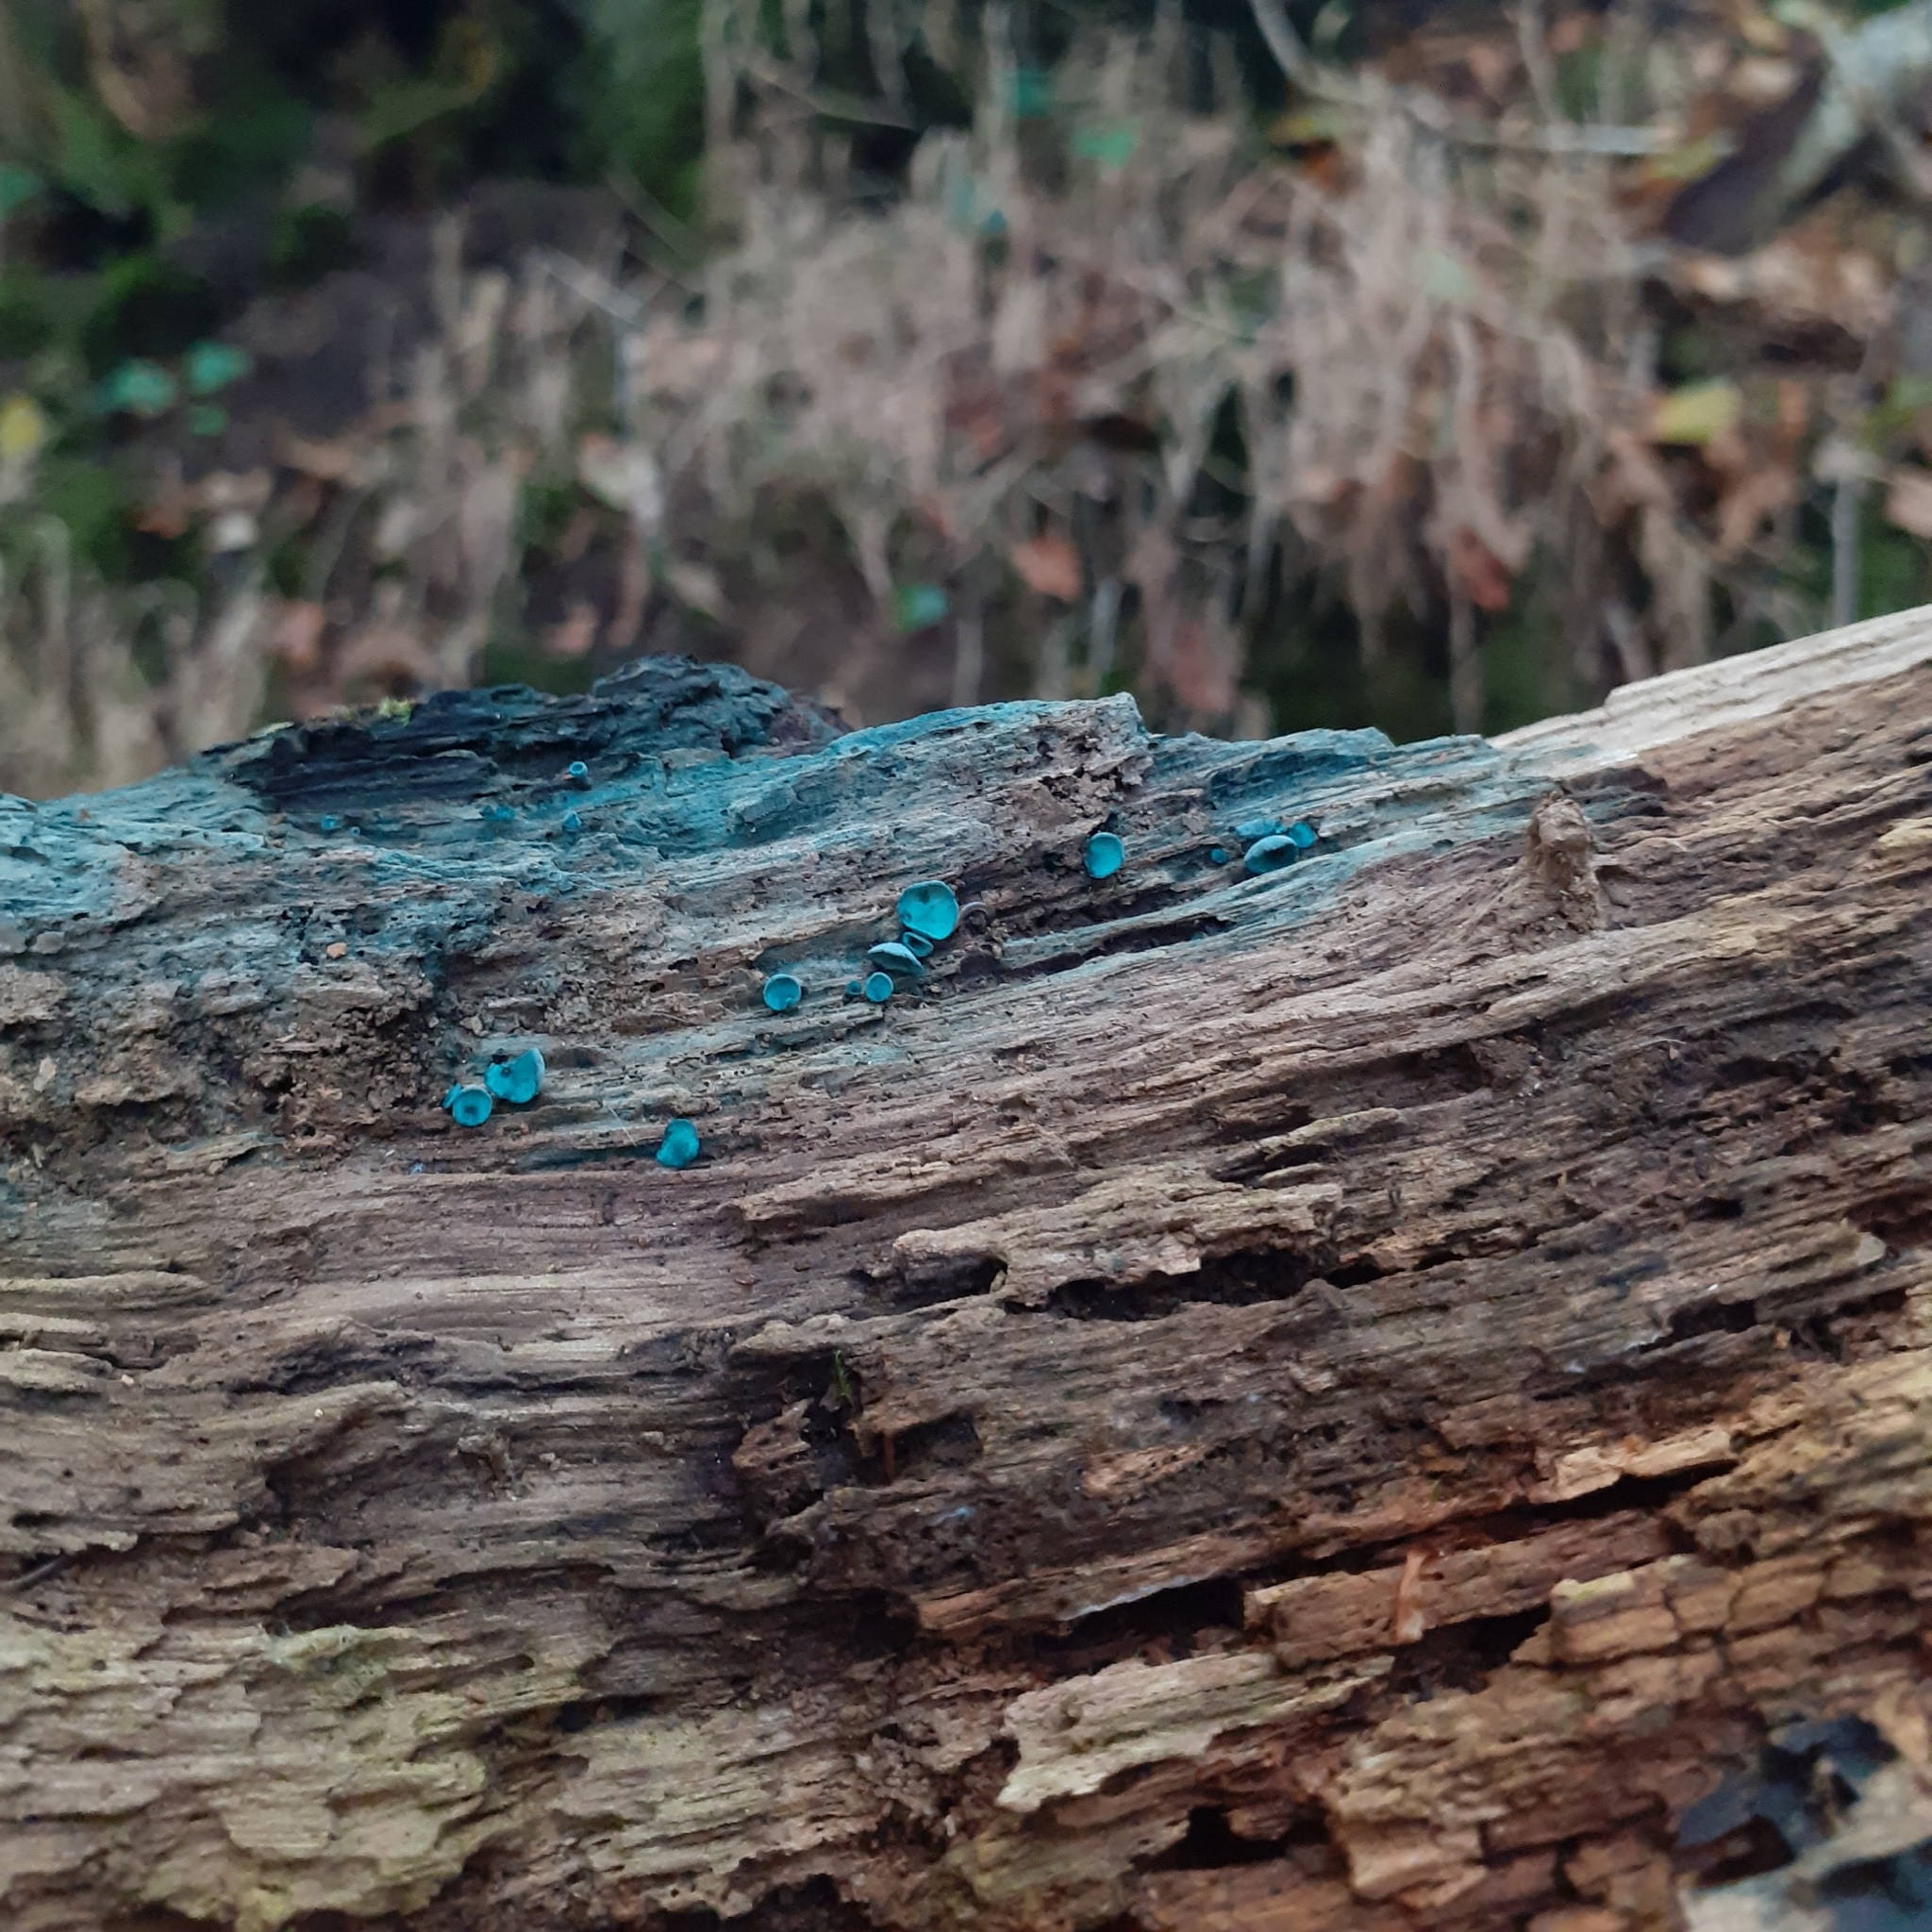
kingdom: Fungi
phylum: Ascomycota
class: Leotiomycetes
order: Helotiales
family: Chlorociboriaceae
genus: Chlorociboria
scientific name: Chlorociboria aeruginascens
